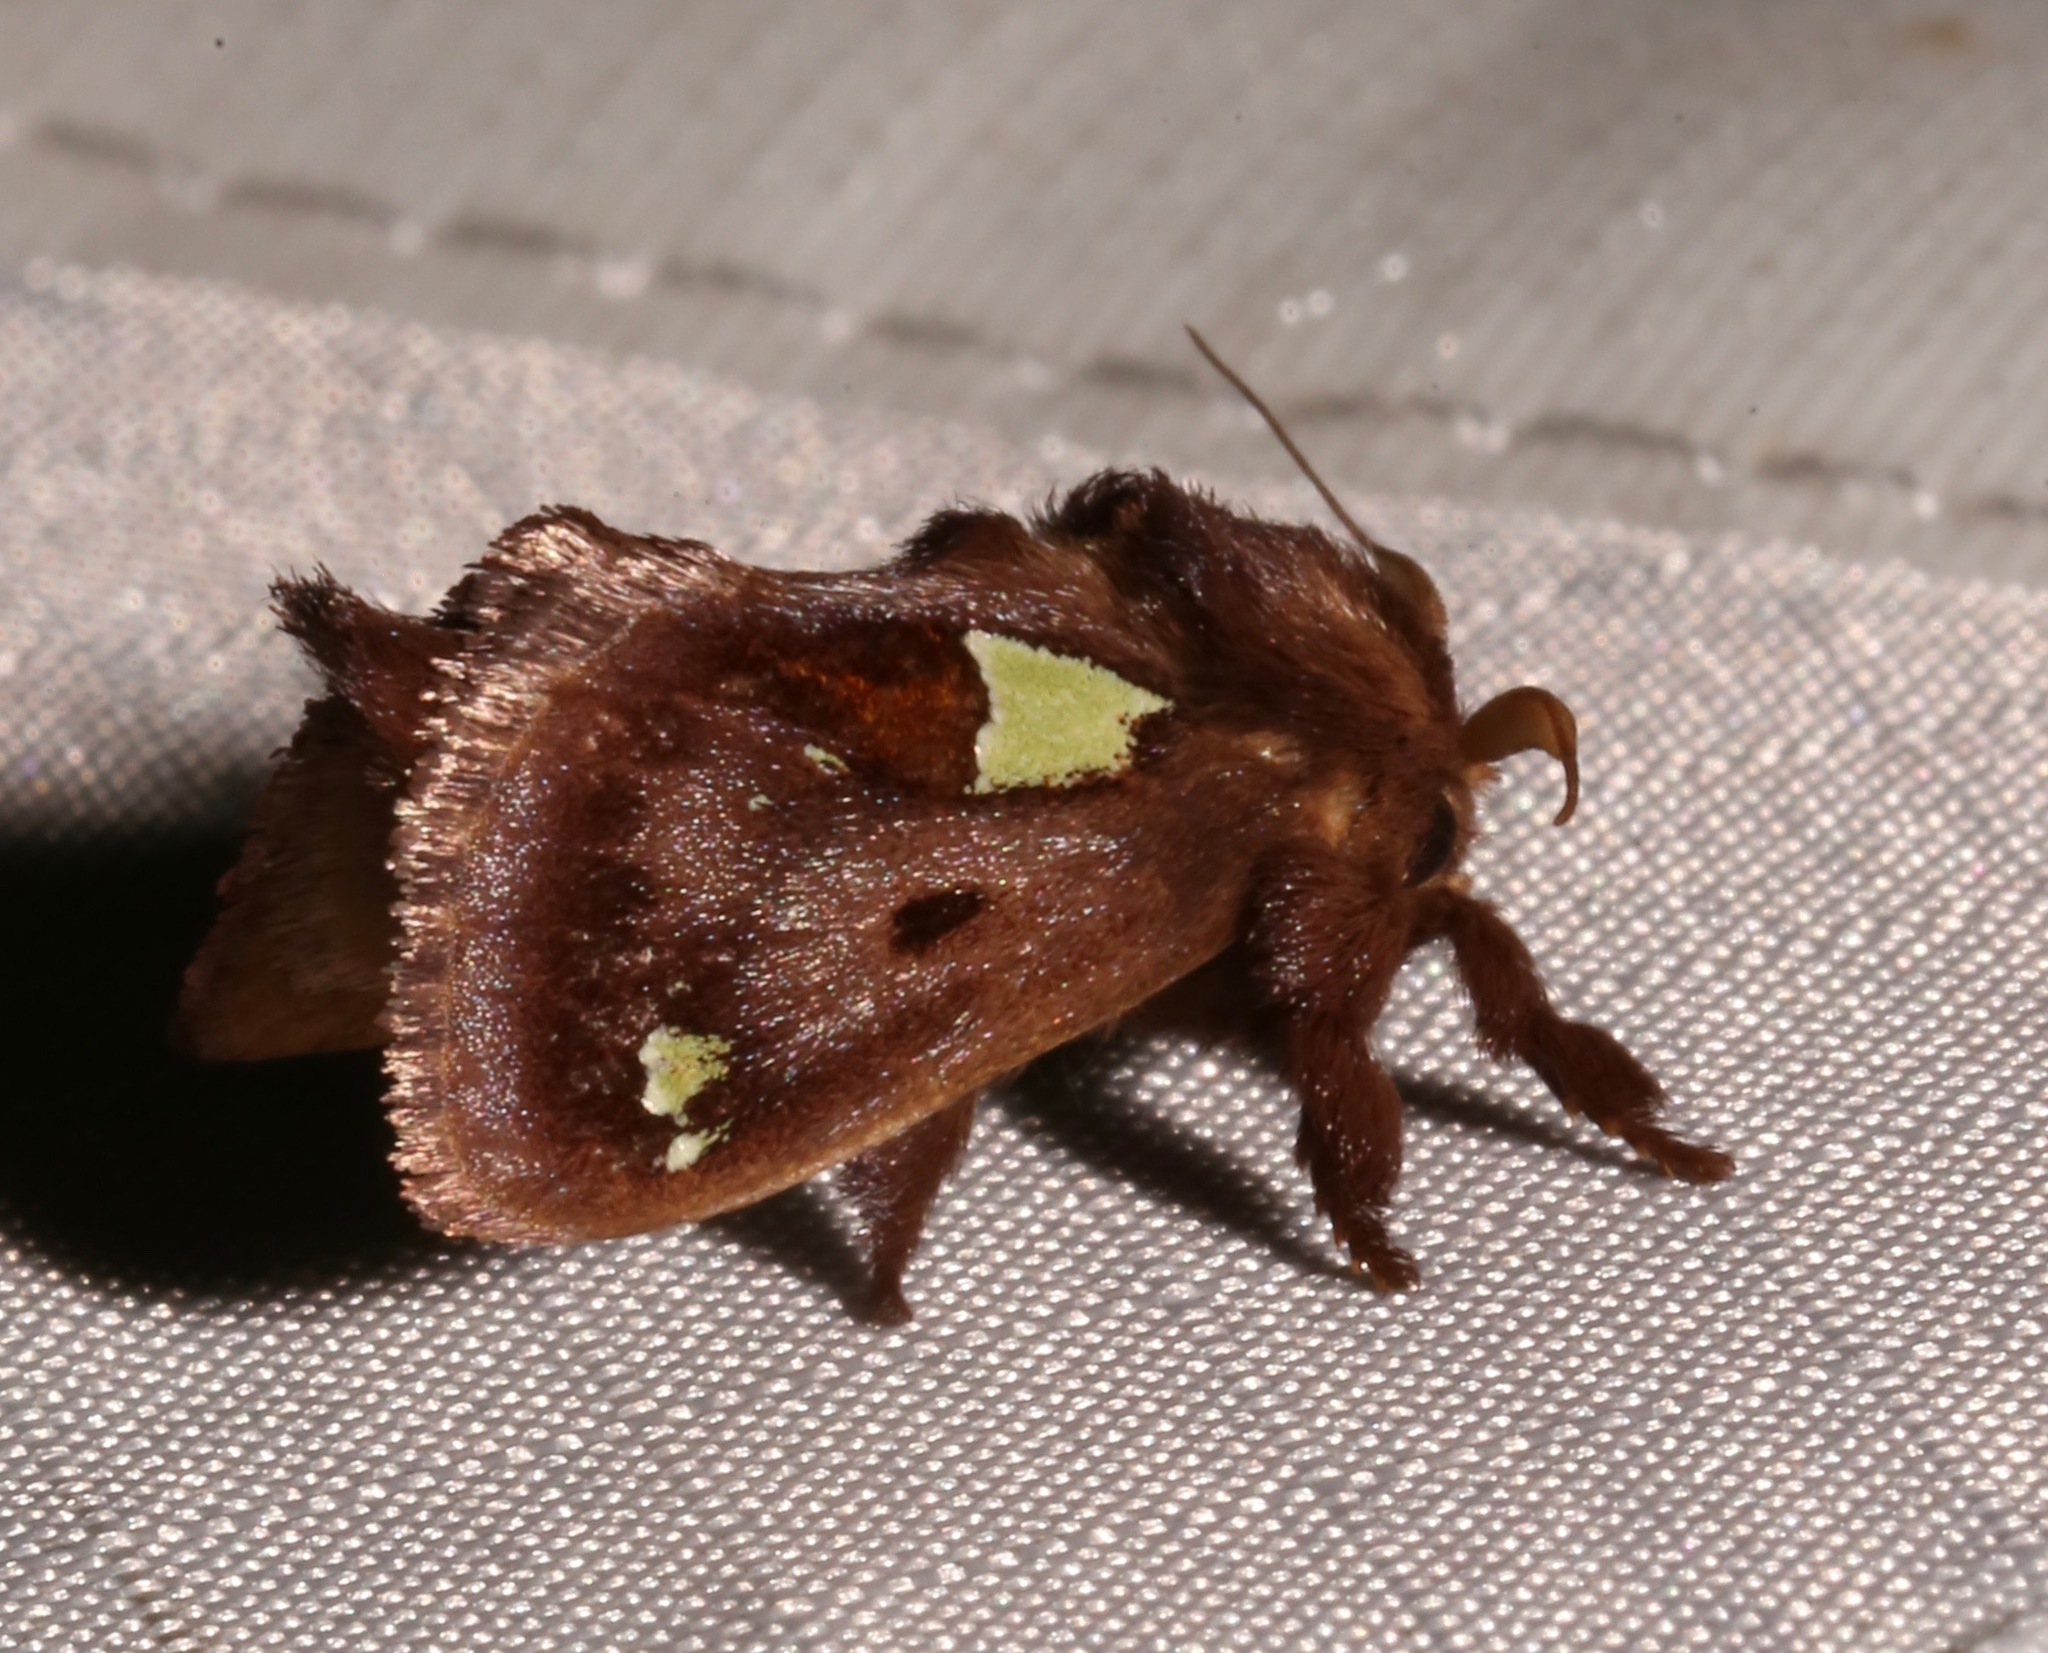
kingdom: Animalia
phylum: Arthropoda
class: Insecta
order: Lepidoptera
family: Limacodidae
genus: Euclea
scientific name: Euclea delphinii
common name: Spiny oak-slug moth
